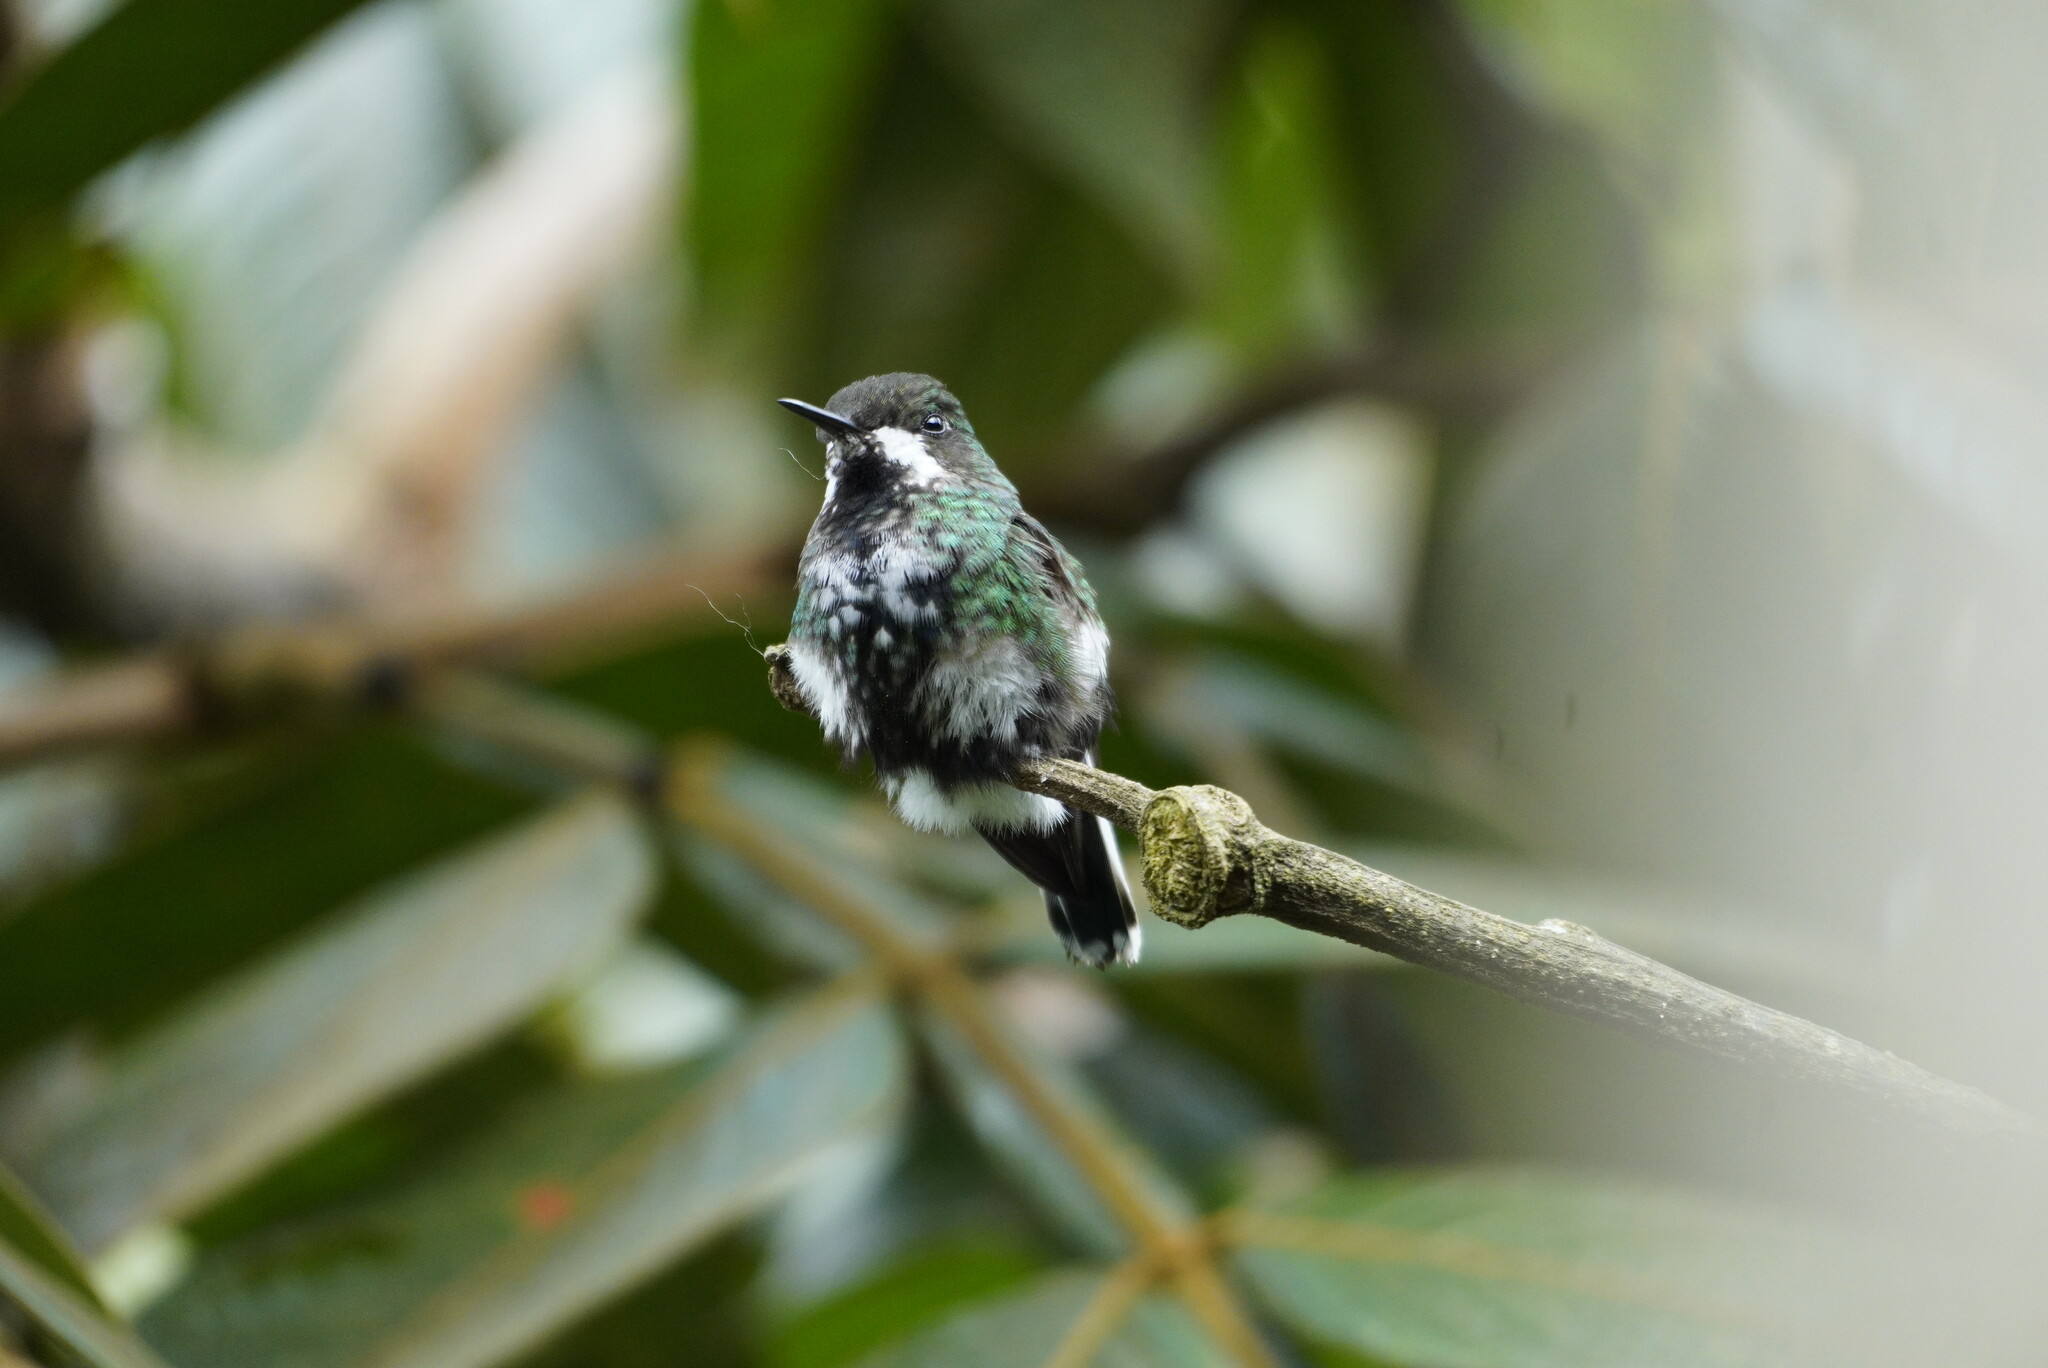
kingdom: Animalia
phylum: Chordata
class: Aves
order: Apodiformes
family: Trochilidae
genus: Discosura
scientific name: Discosura conversii
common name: Green thorntail
